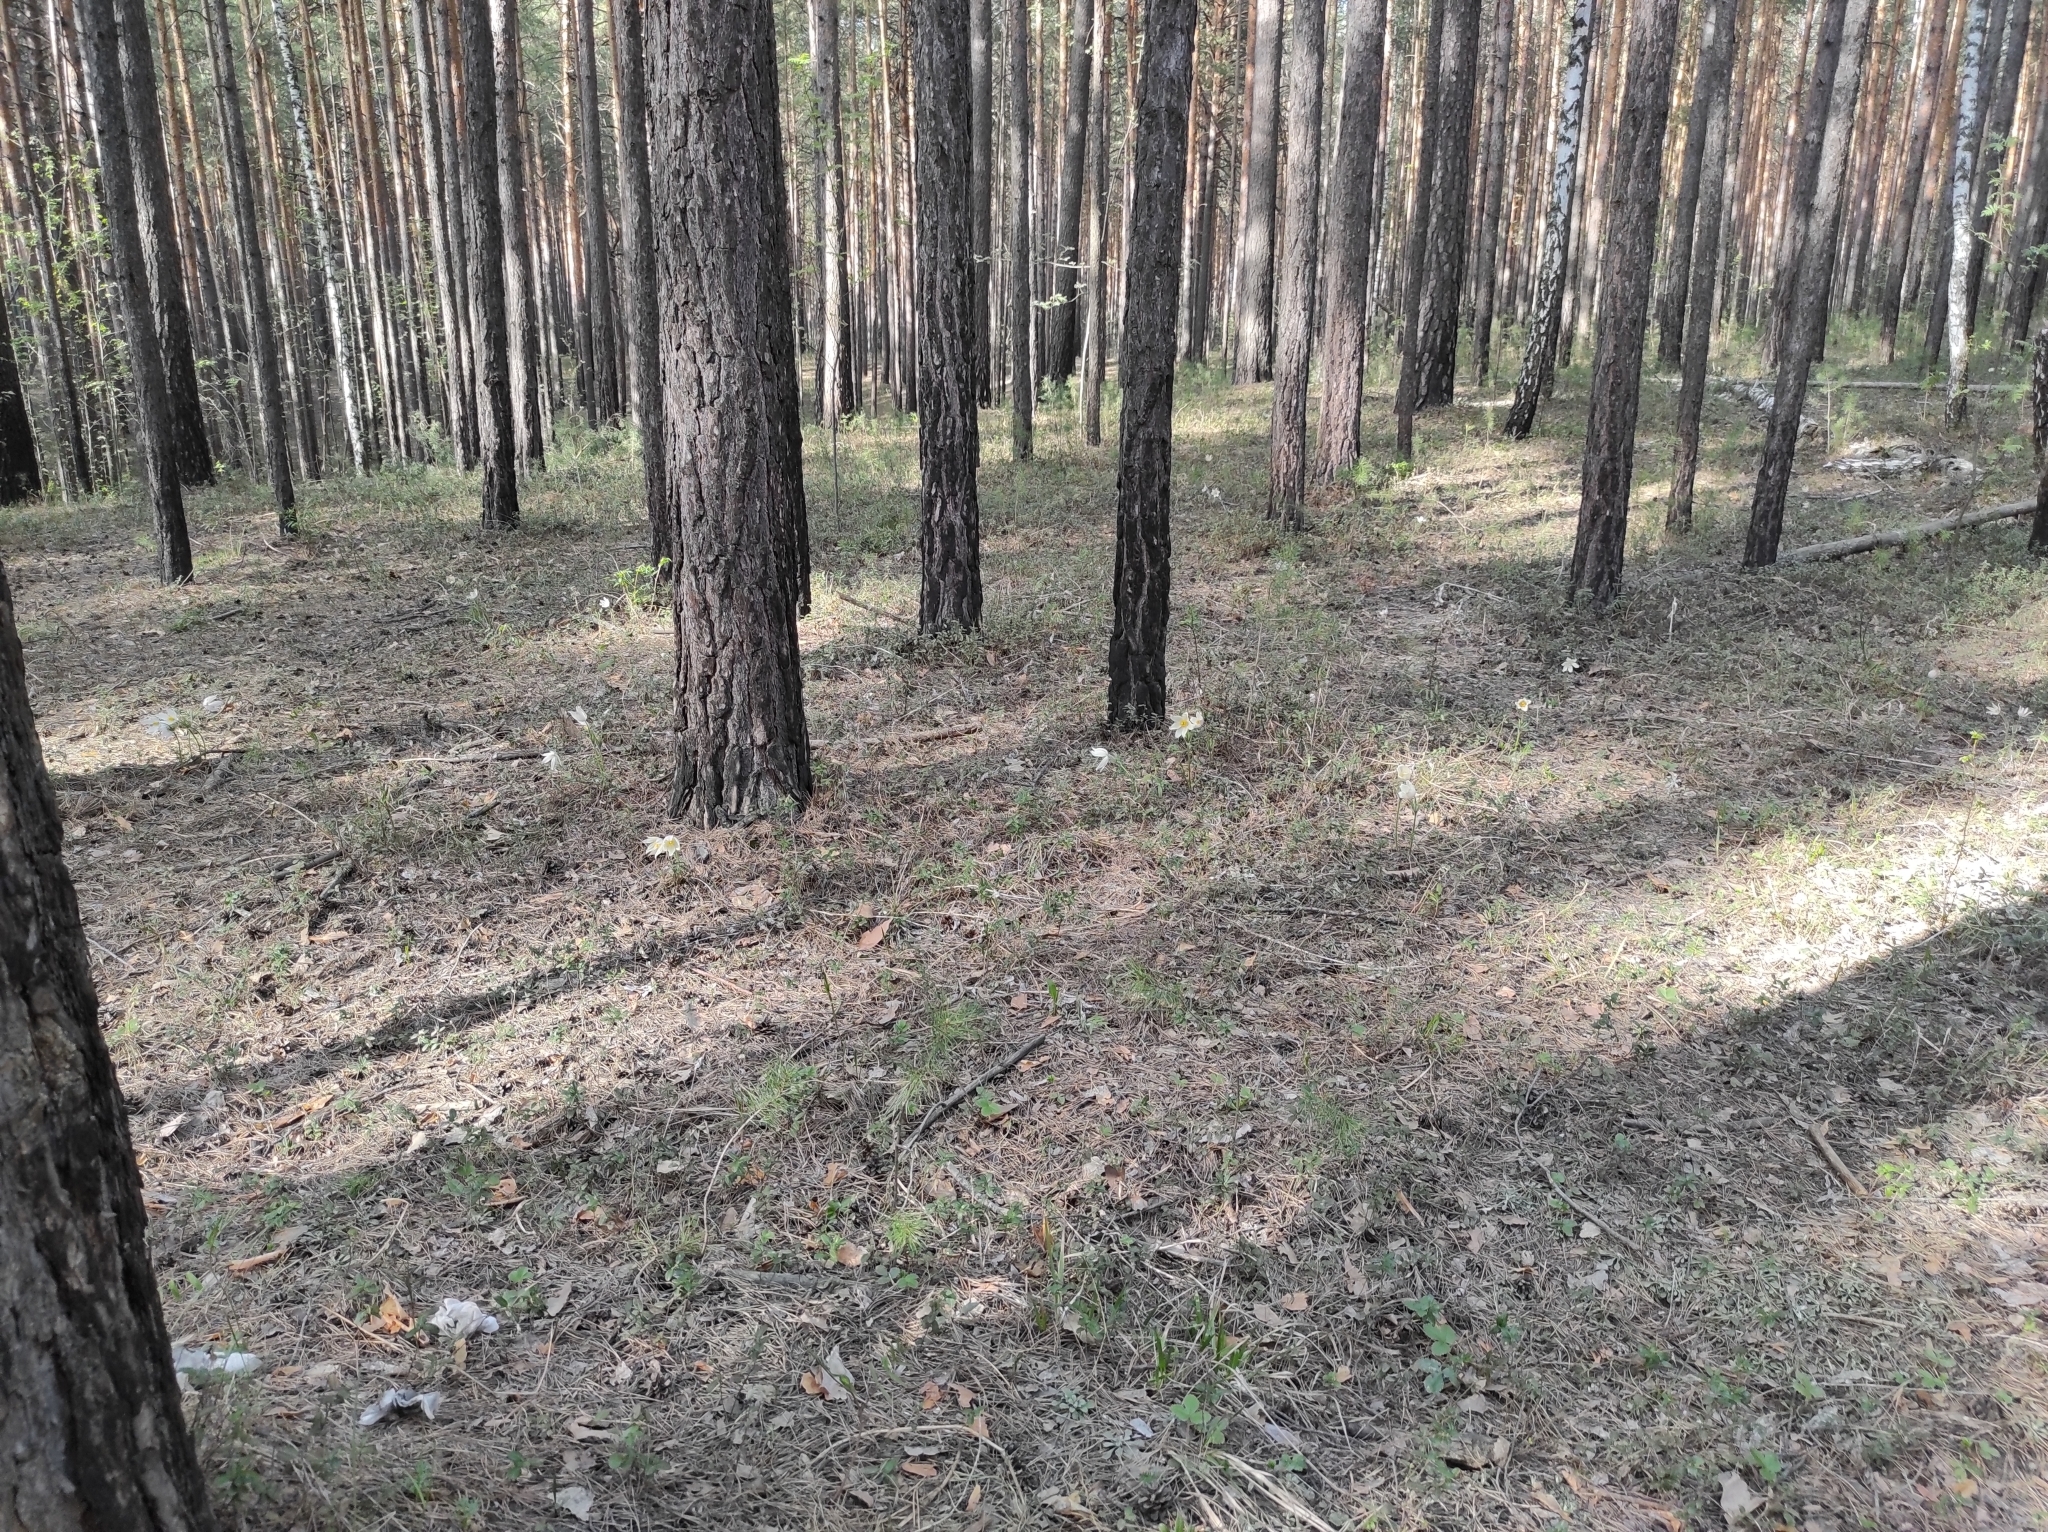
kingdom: Plantae
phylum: Tracheophyta
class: Pinopsida
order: Pinales
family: Pinaceae
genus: Pinus
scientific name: Pinus sylvestris
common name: Scots pine
